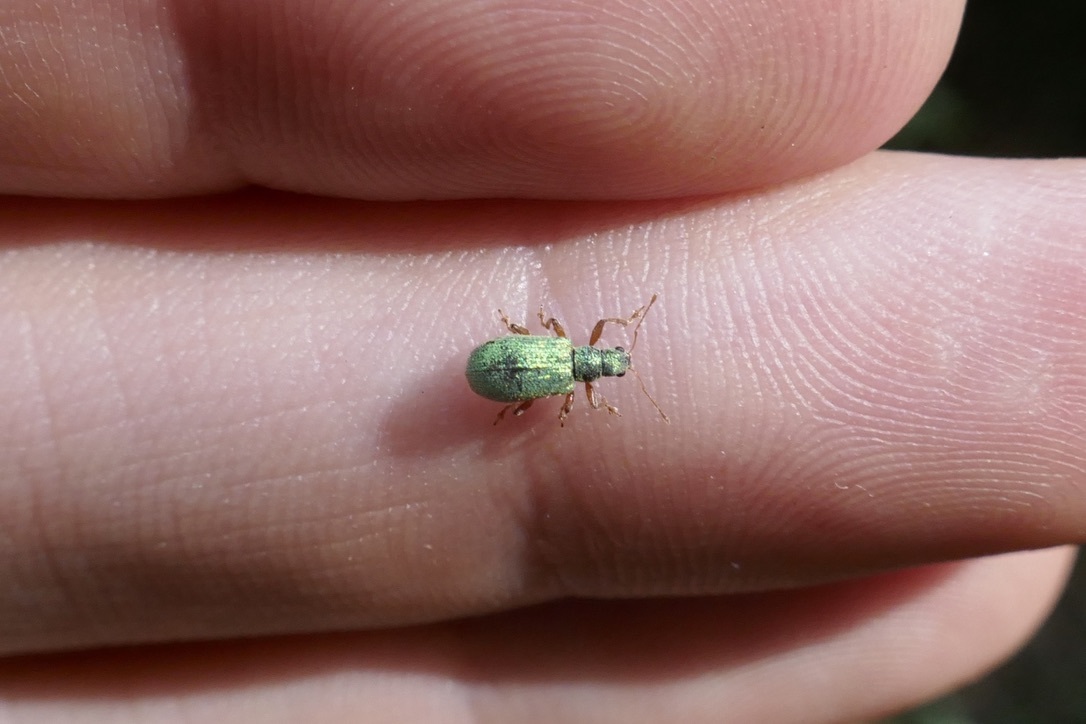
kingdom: Animalia
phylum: Arthropoda
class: Insecta
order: Coleoptera
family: Curculionidae
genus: Polydrusus
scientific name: Polydrusus pterygomalis
